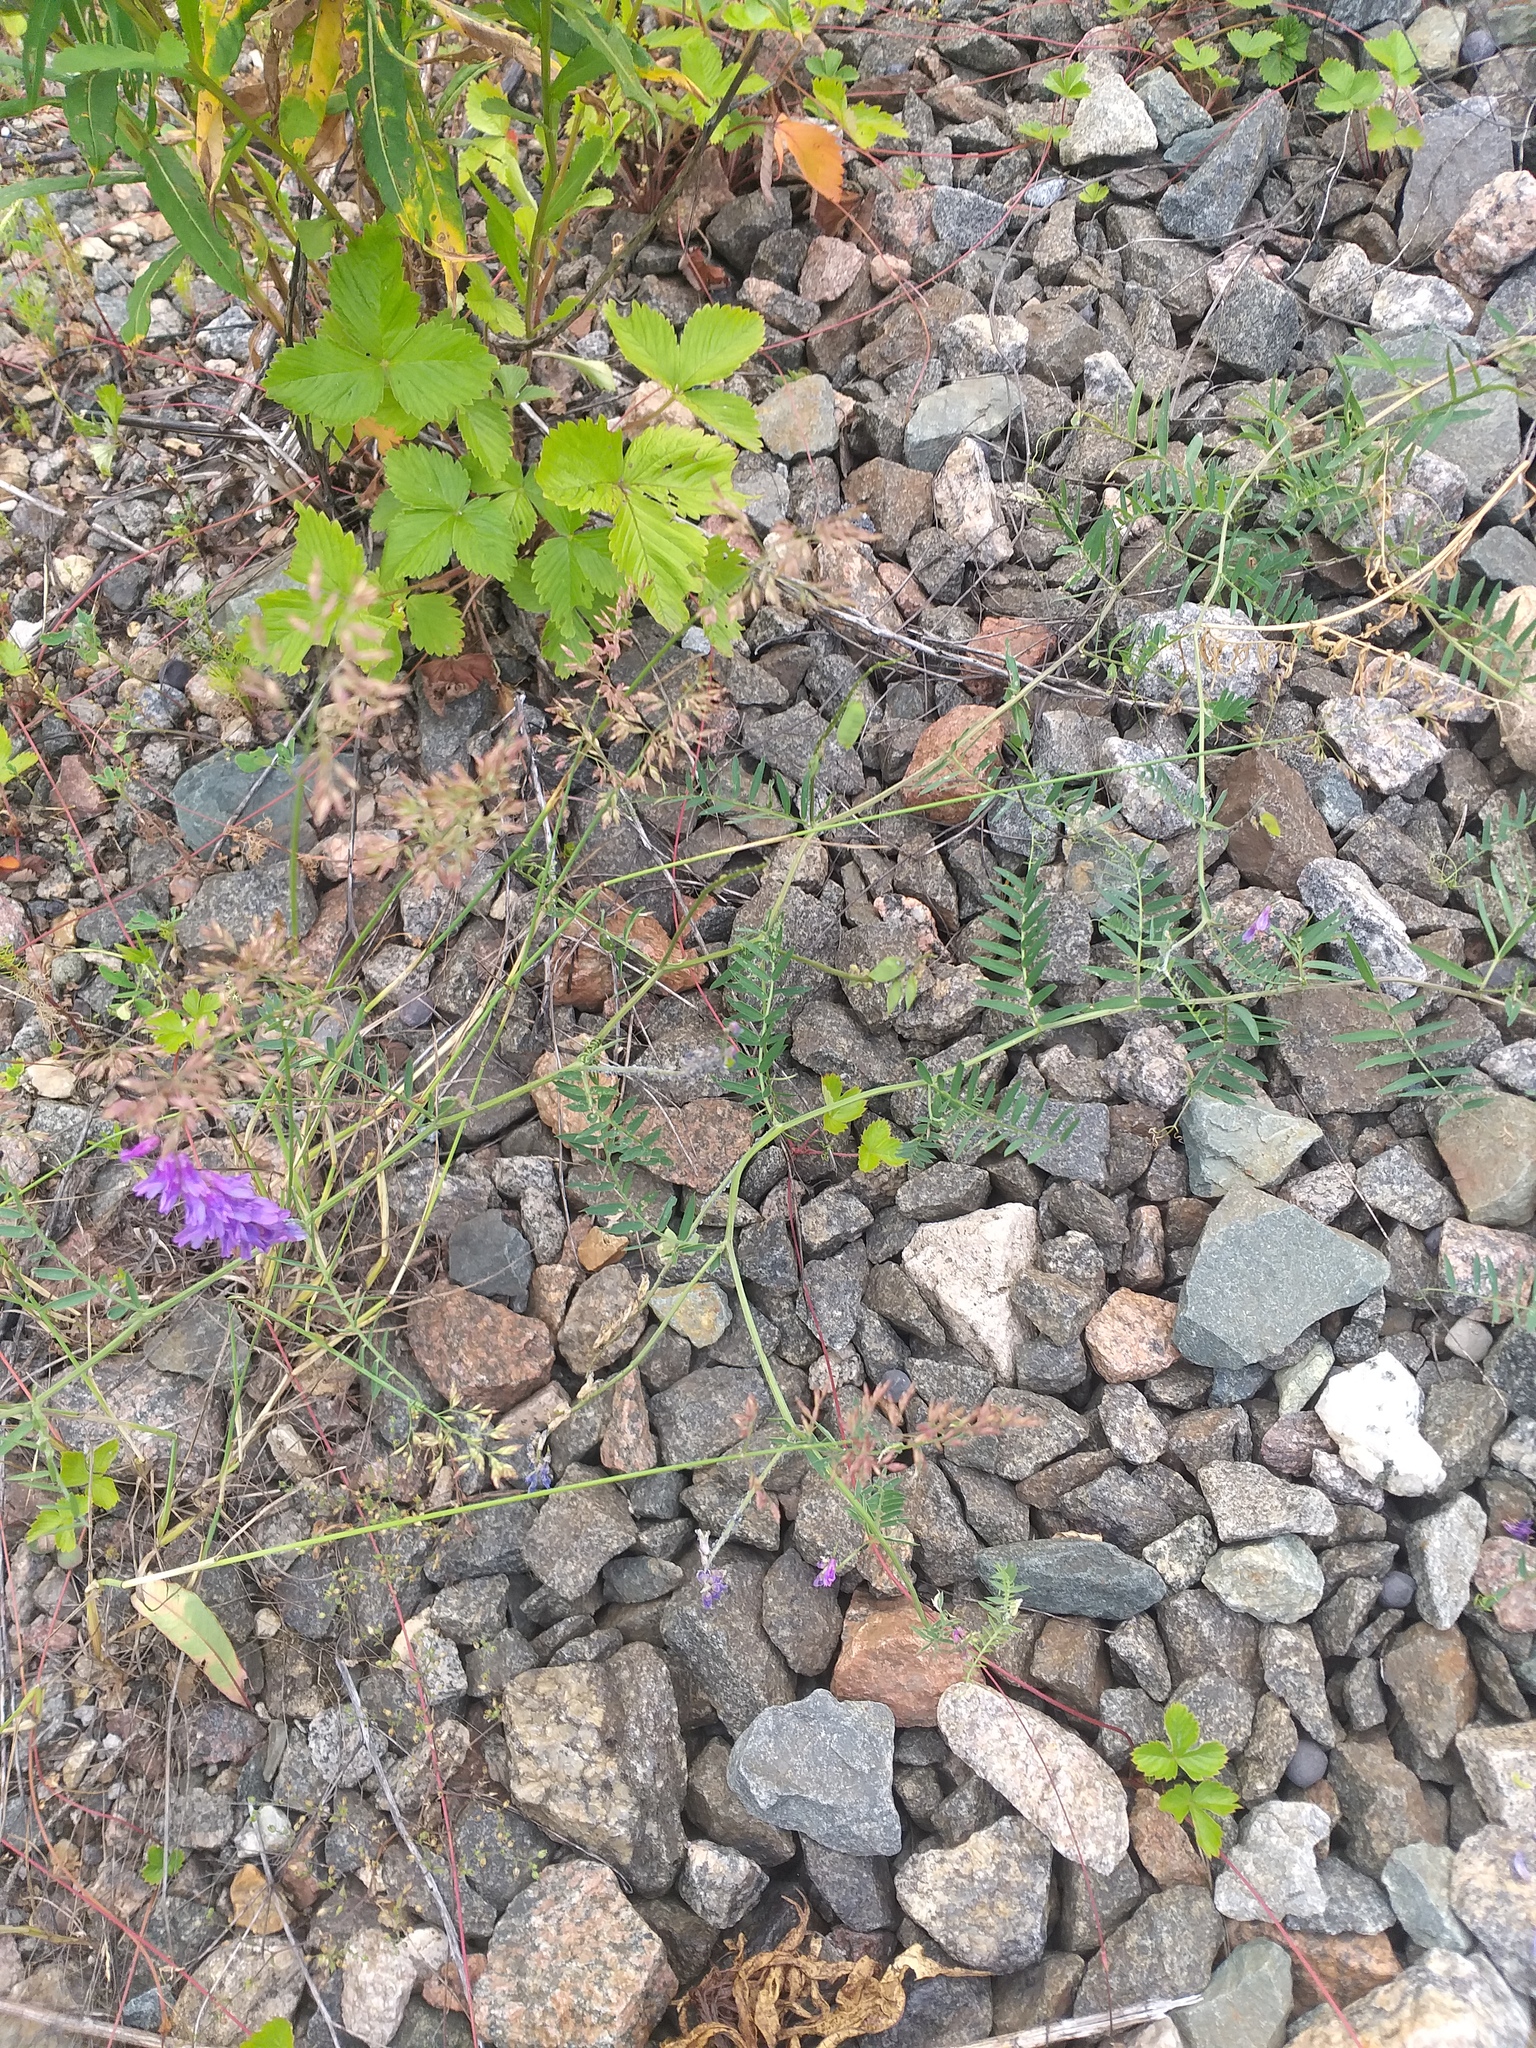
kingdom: Plantae
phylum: Tracheophyta
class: Magnoliopsida
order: Fabales
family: Fabaceae
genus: Vicia
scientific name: Vicia cracca
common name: Bird vetch
